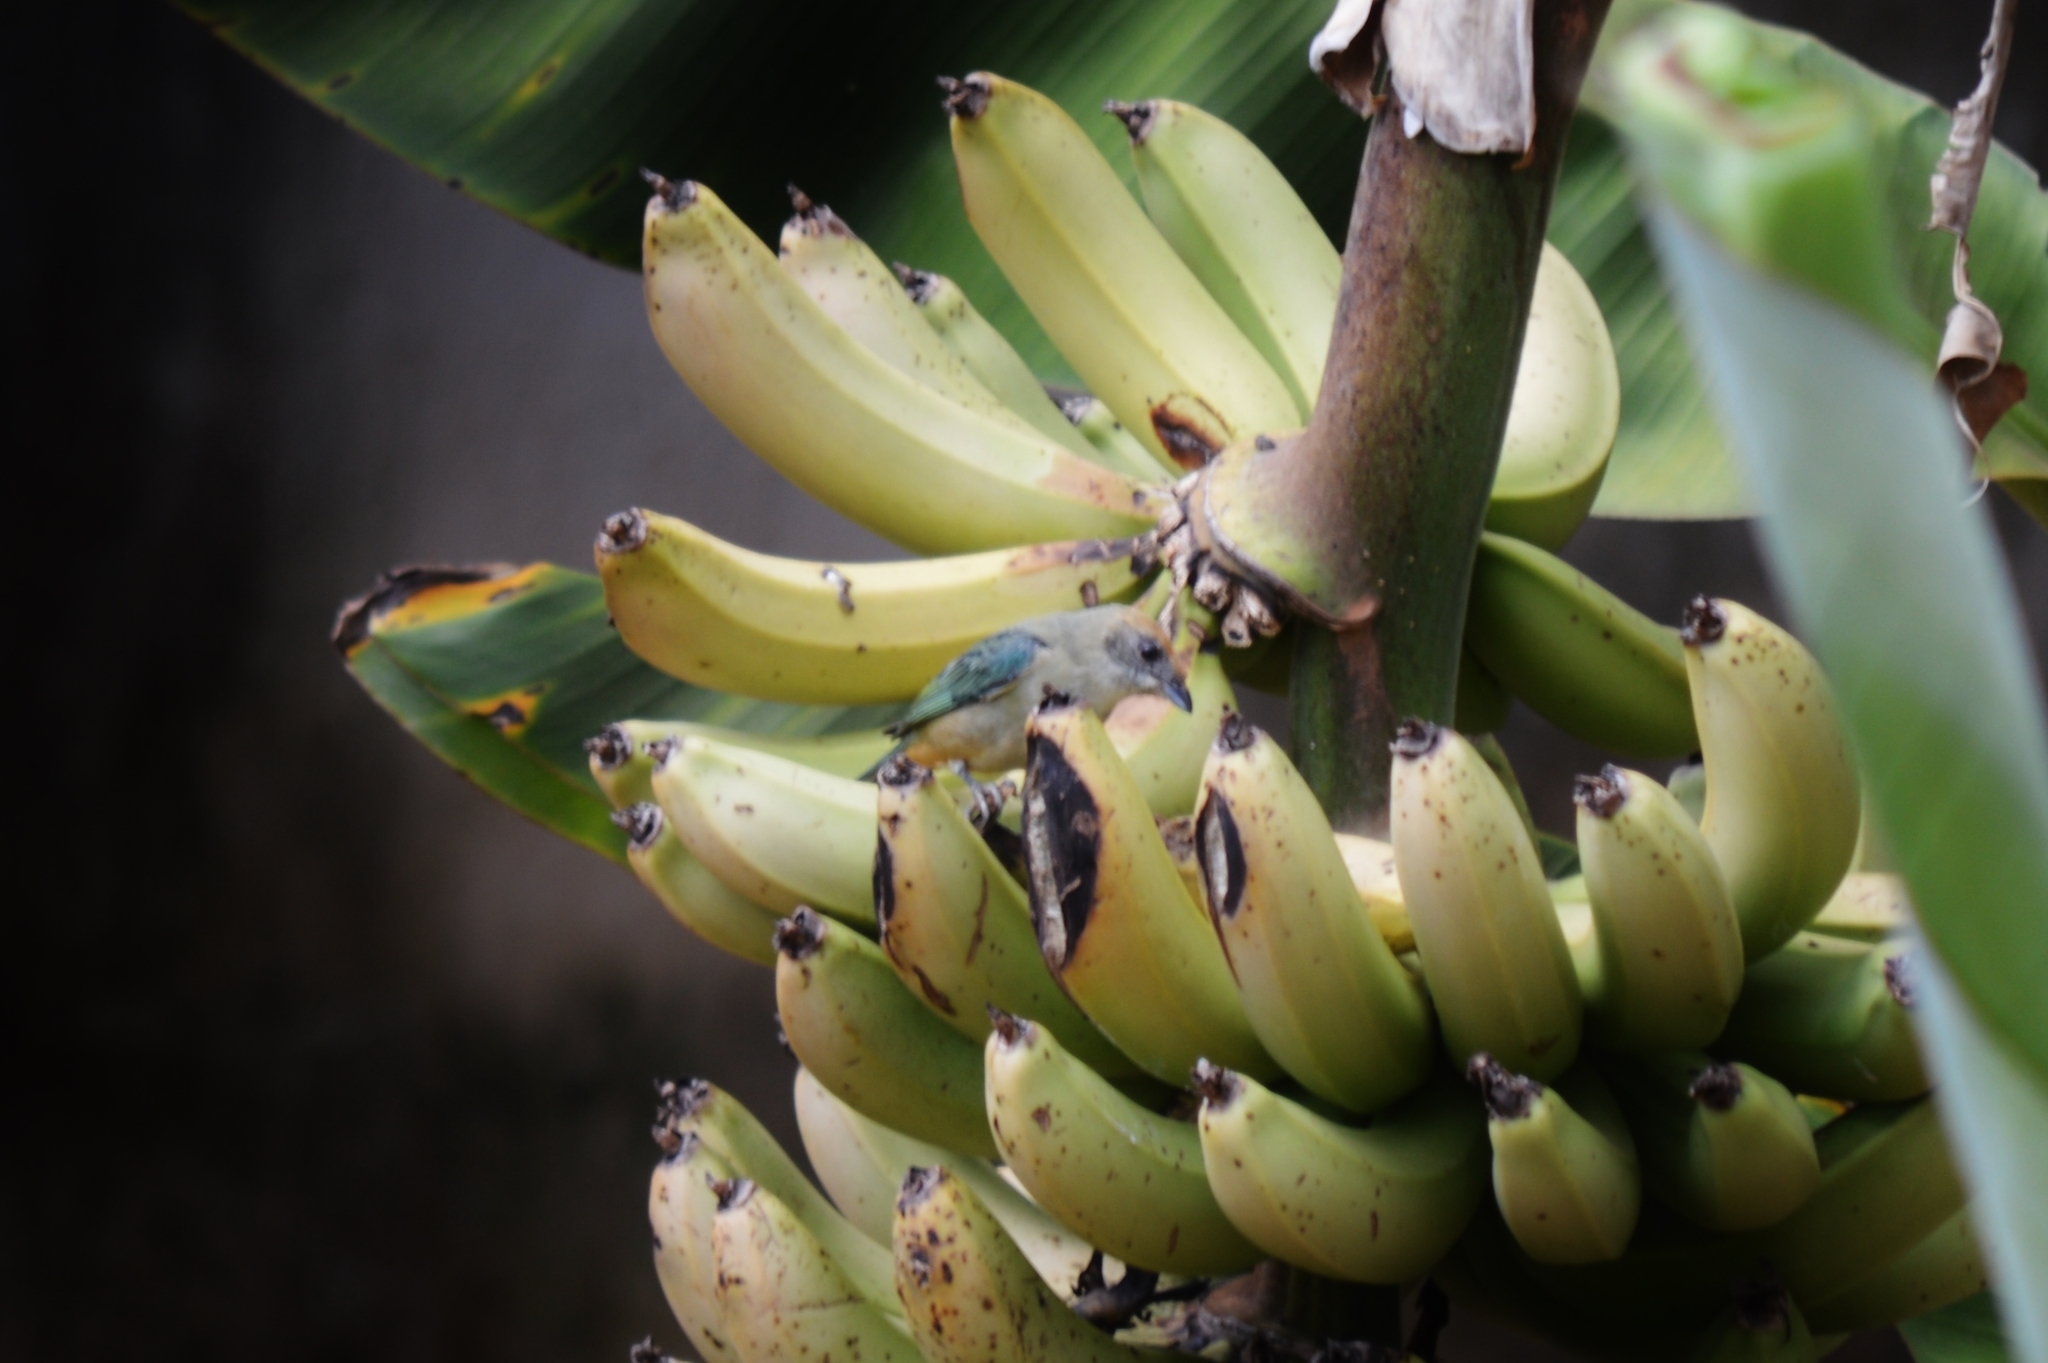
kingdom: Animalia
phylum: Chordata
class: Aves
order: Passeriformes
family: Thraupidae
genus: Stilpnia
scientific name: Stilpnia cayana
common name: Burnished-buff tanager
